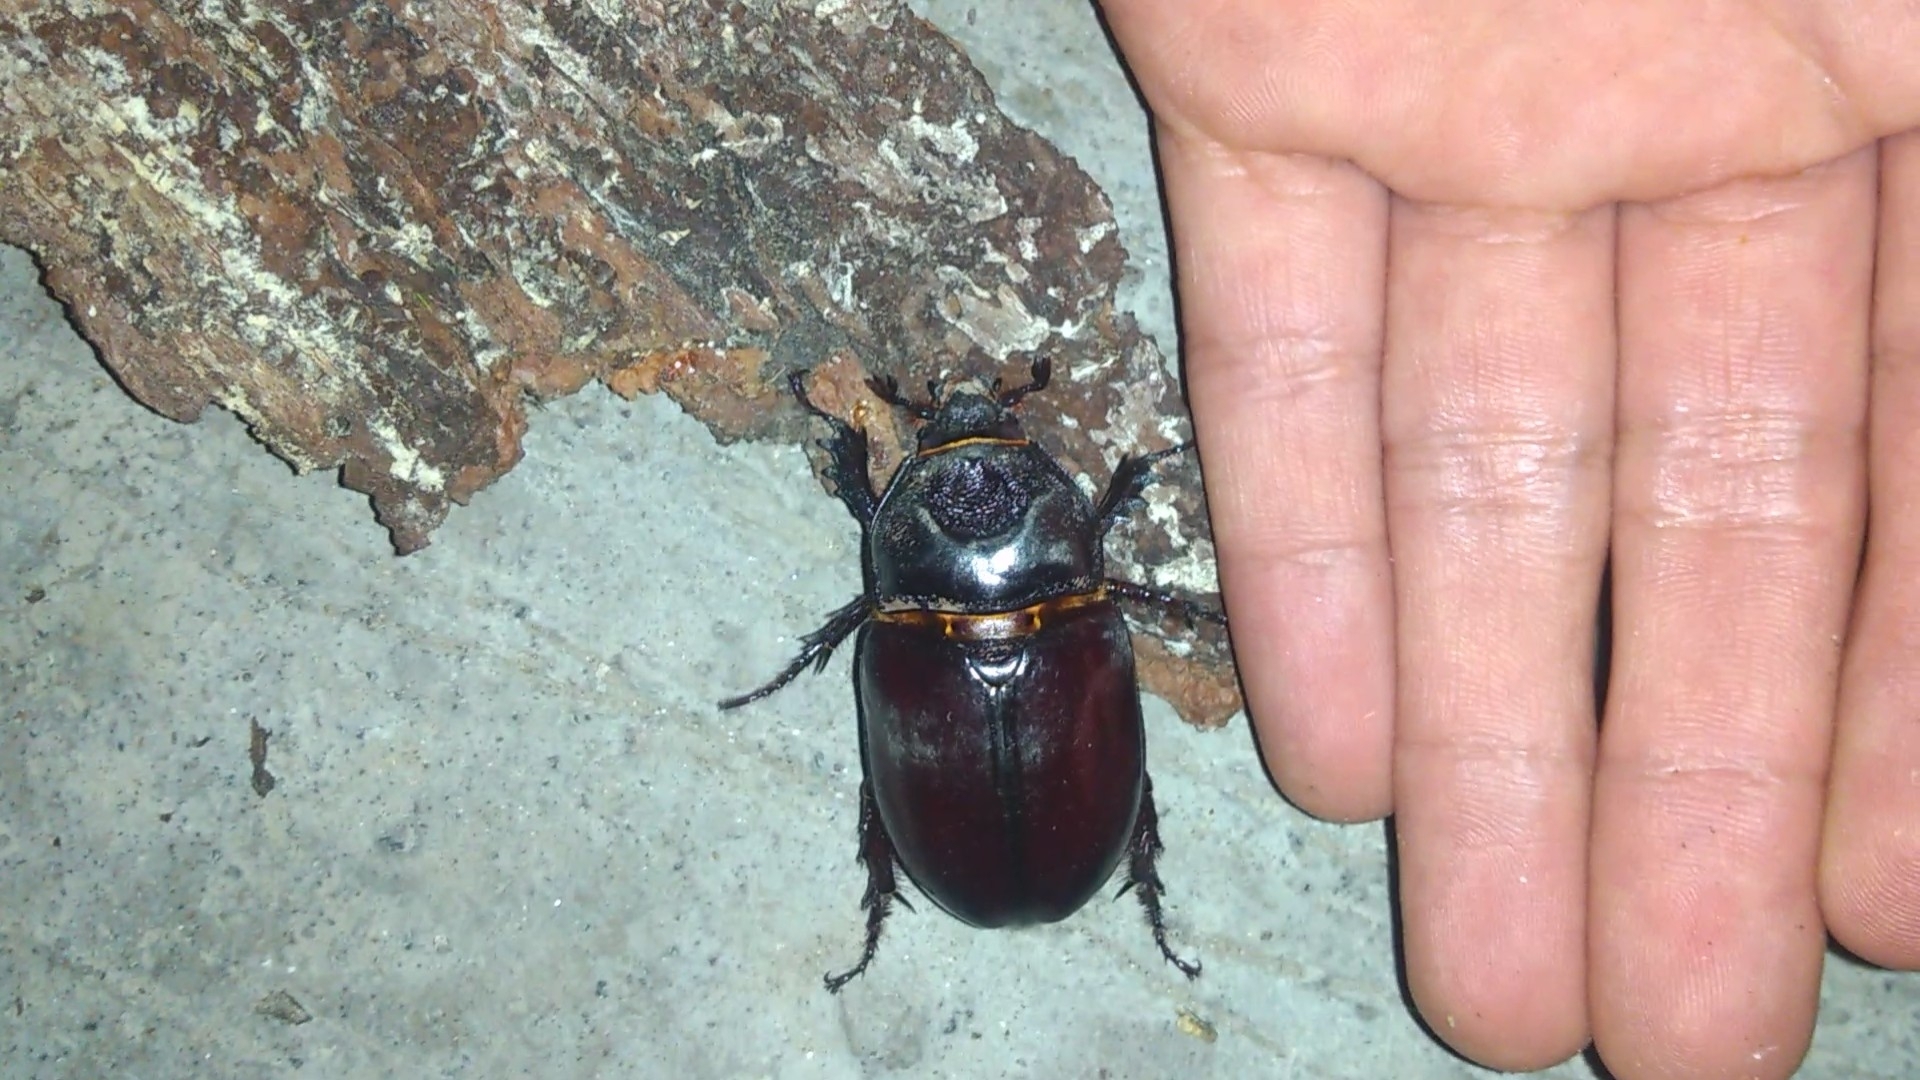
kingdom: Animalia
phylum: Arthropoda
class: Insecta
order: Coleoptera
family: Scarabaeidae
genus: Strategus
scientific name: Strategus aloeus
